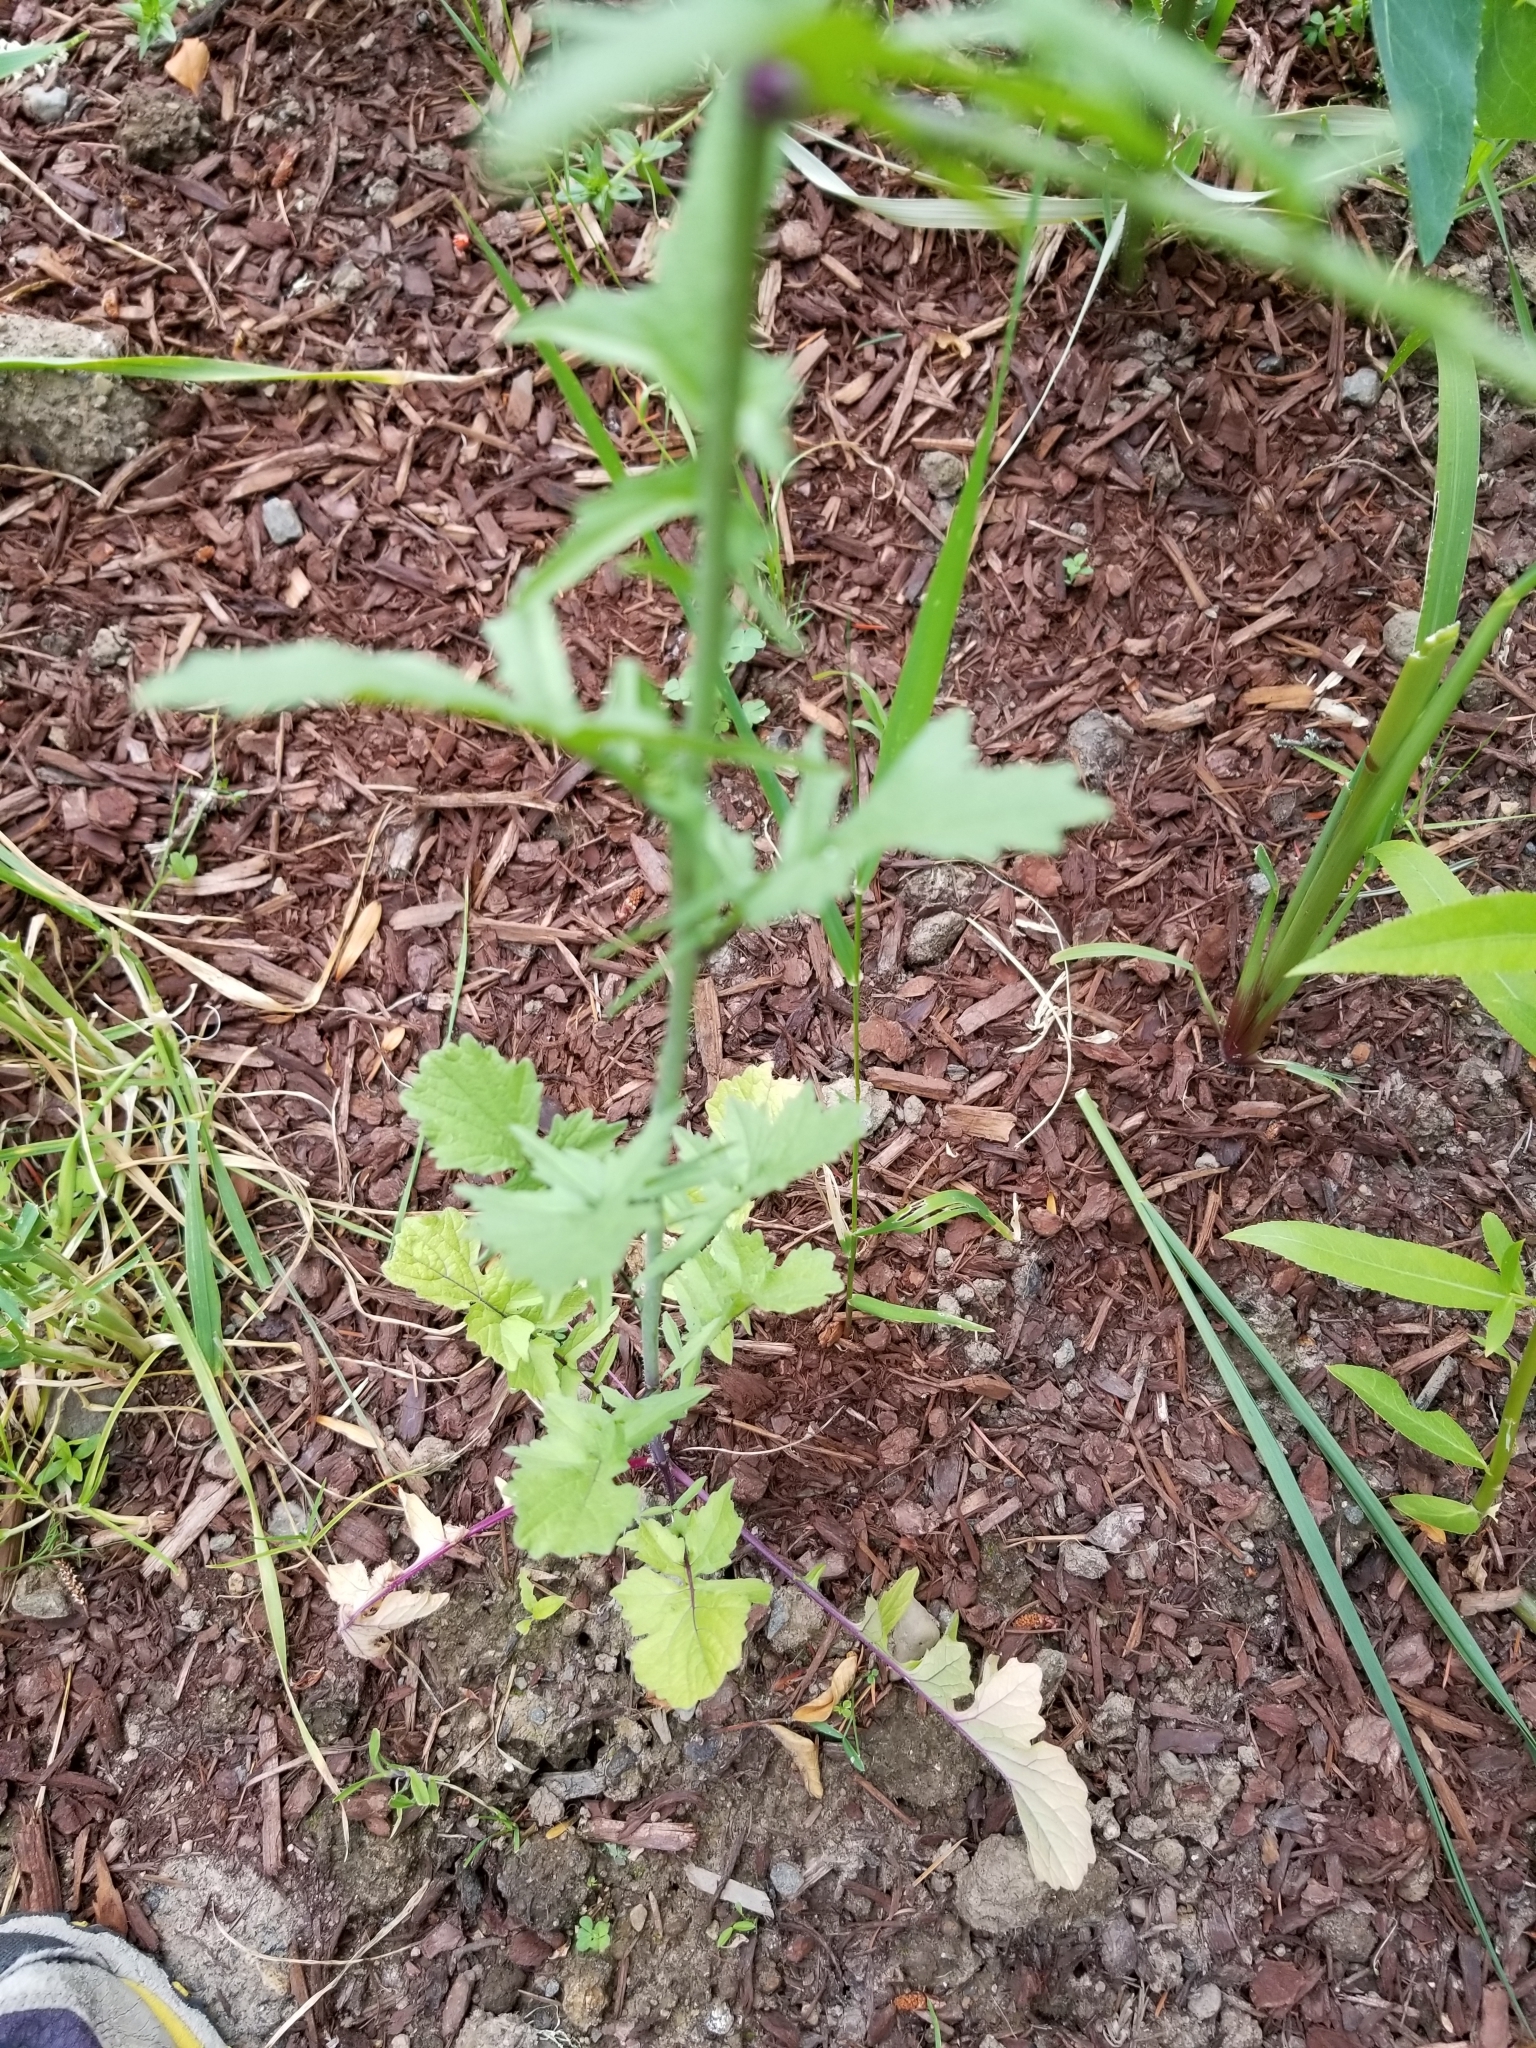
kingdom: Plantae
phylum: Tracheophyta
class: Magnoliopsida
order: Brassicales
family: Brassicaceae
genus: Sisymbrium
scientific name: Sisymbrium officinale
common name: Hedge mustard
